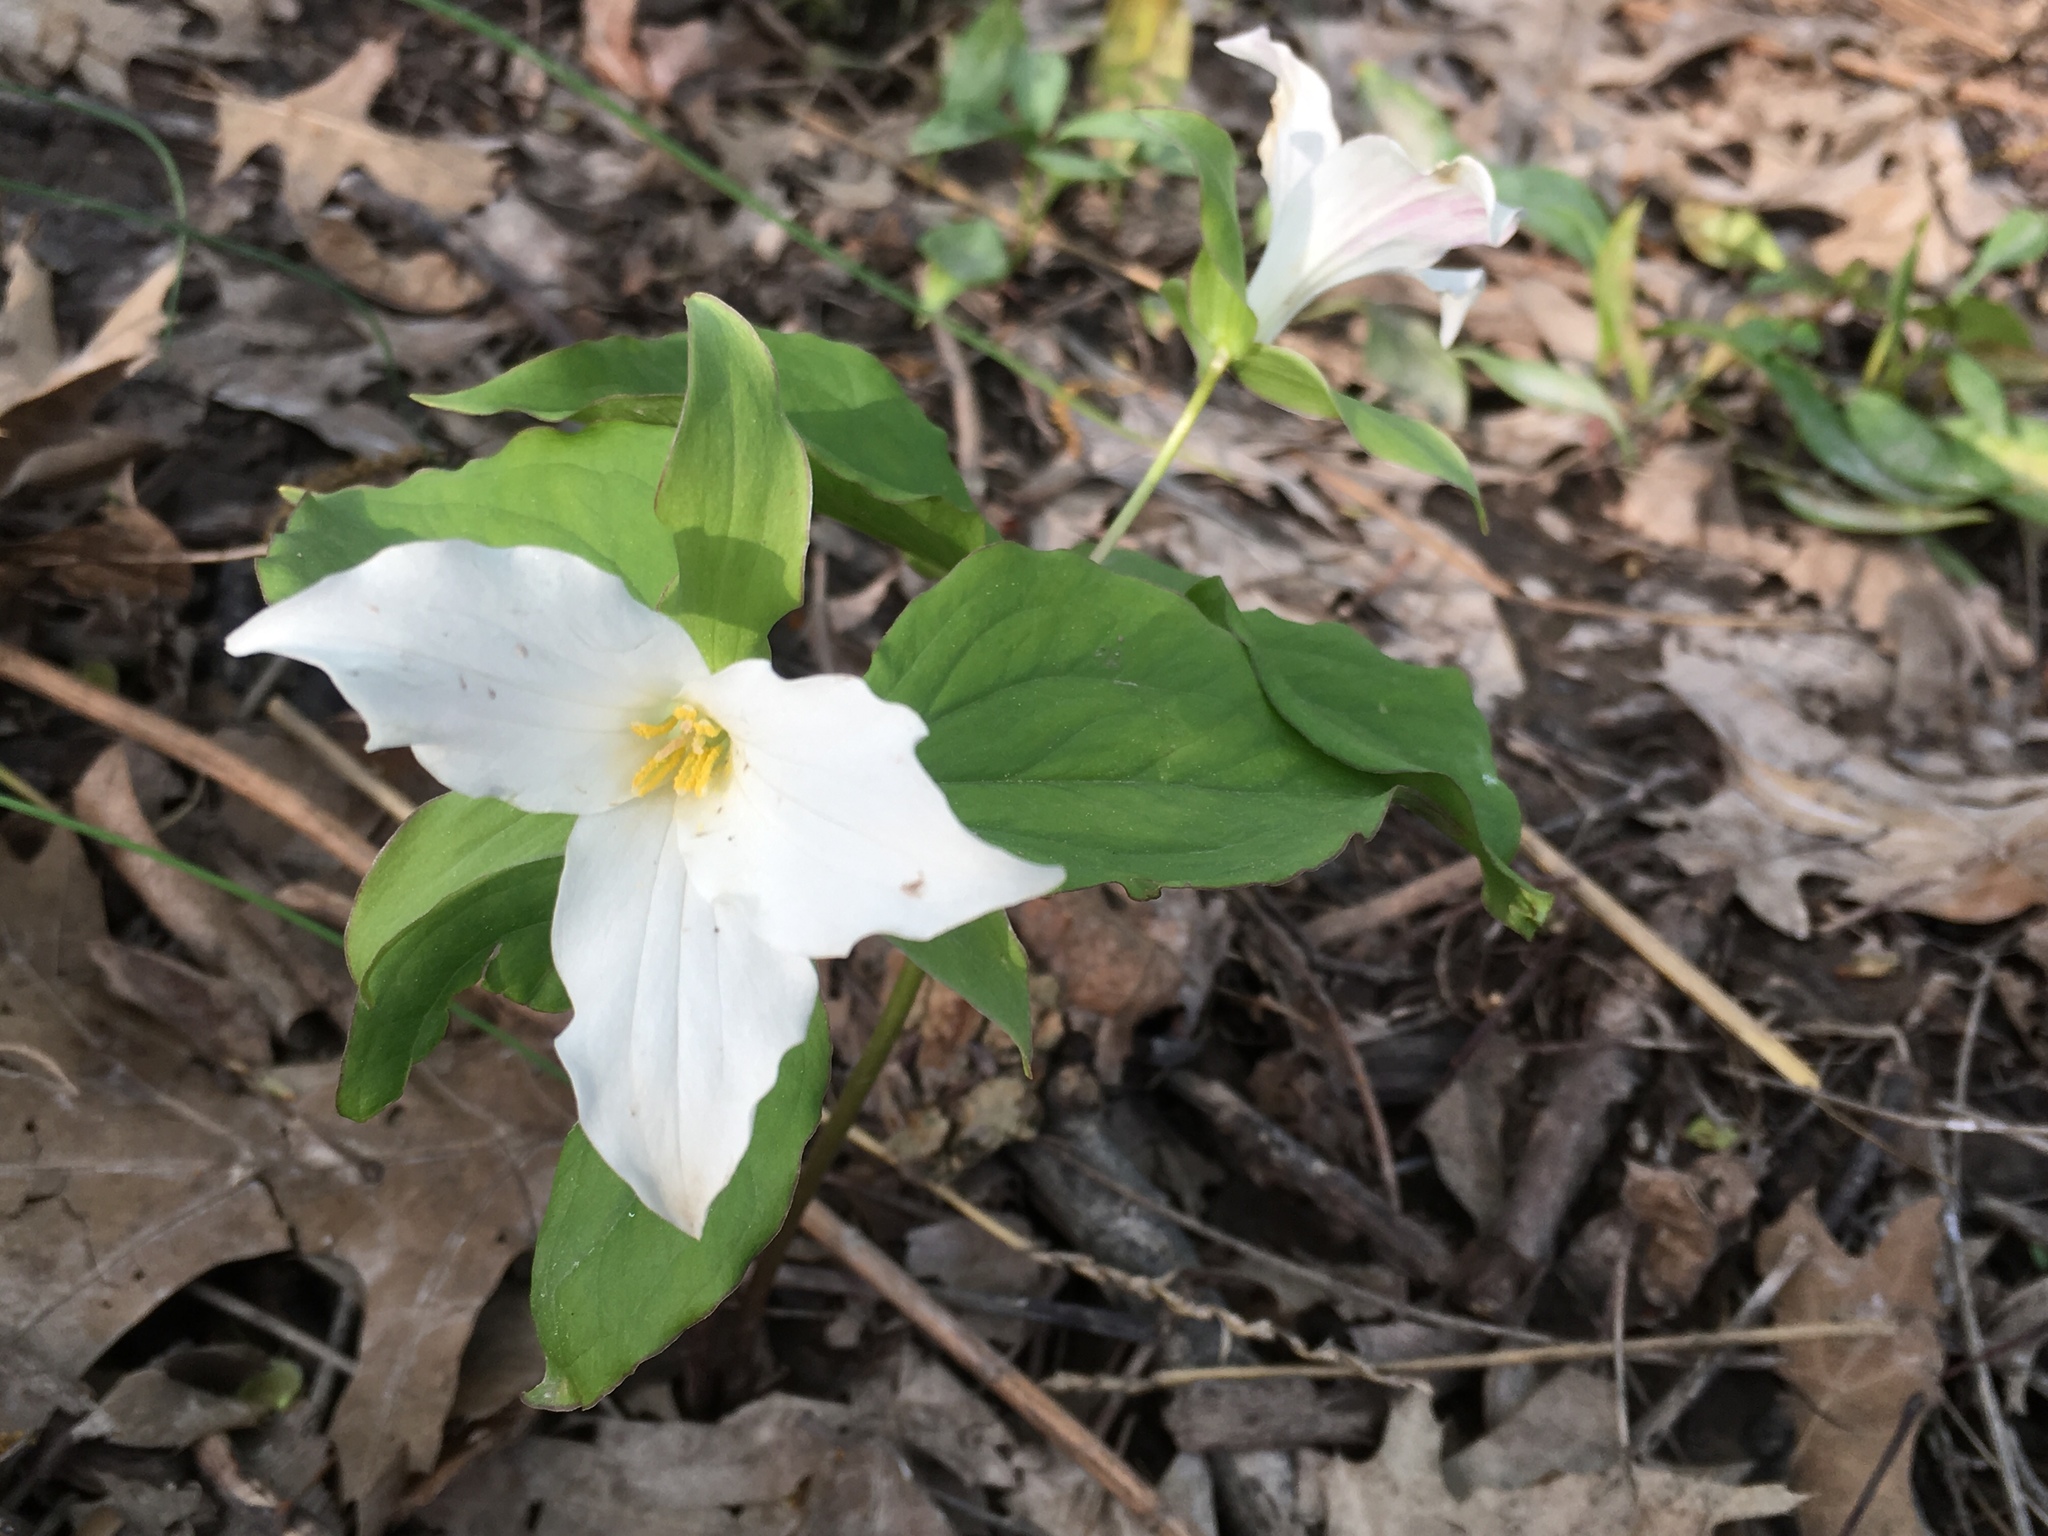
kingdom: Plantae
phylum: Tracheophyta
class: Liliopsida
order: Liliales
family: Melanthiaceae
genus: Trillium
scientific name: Trillium grandiflorum
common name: Great white trillium
